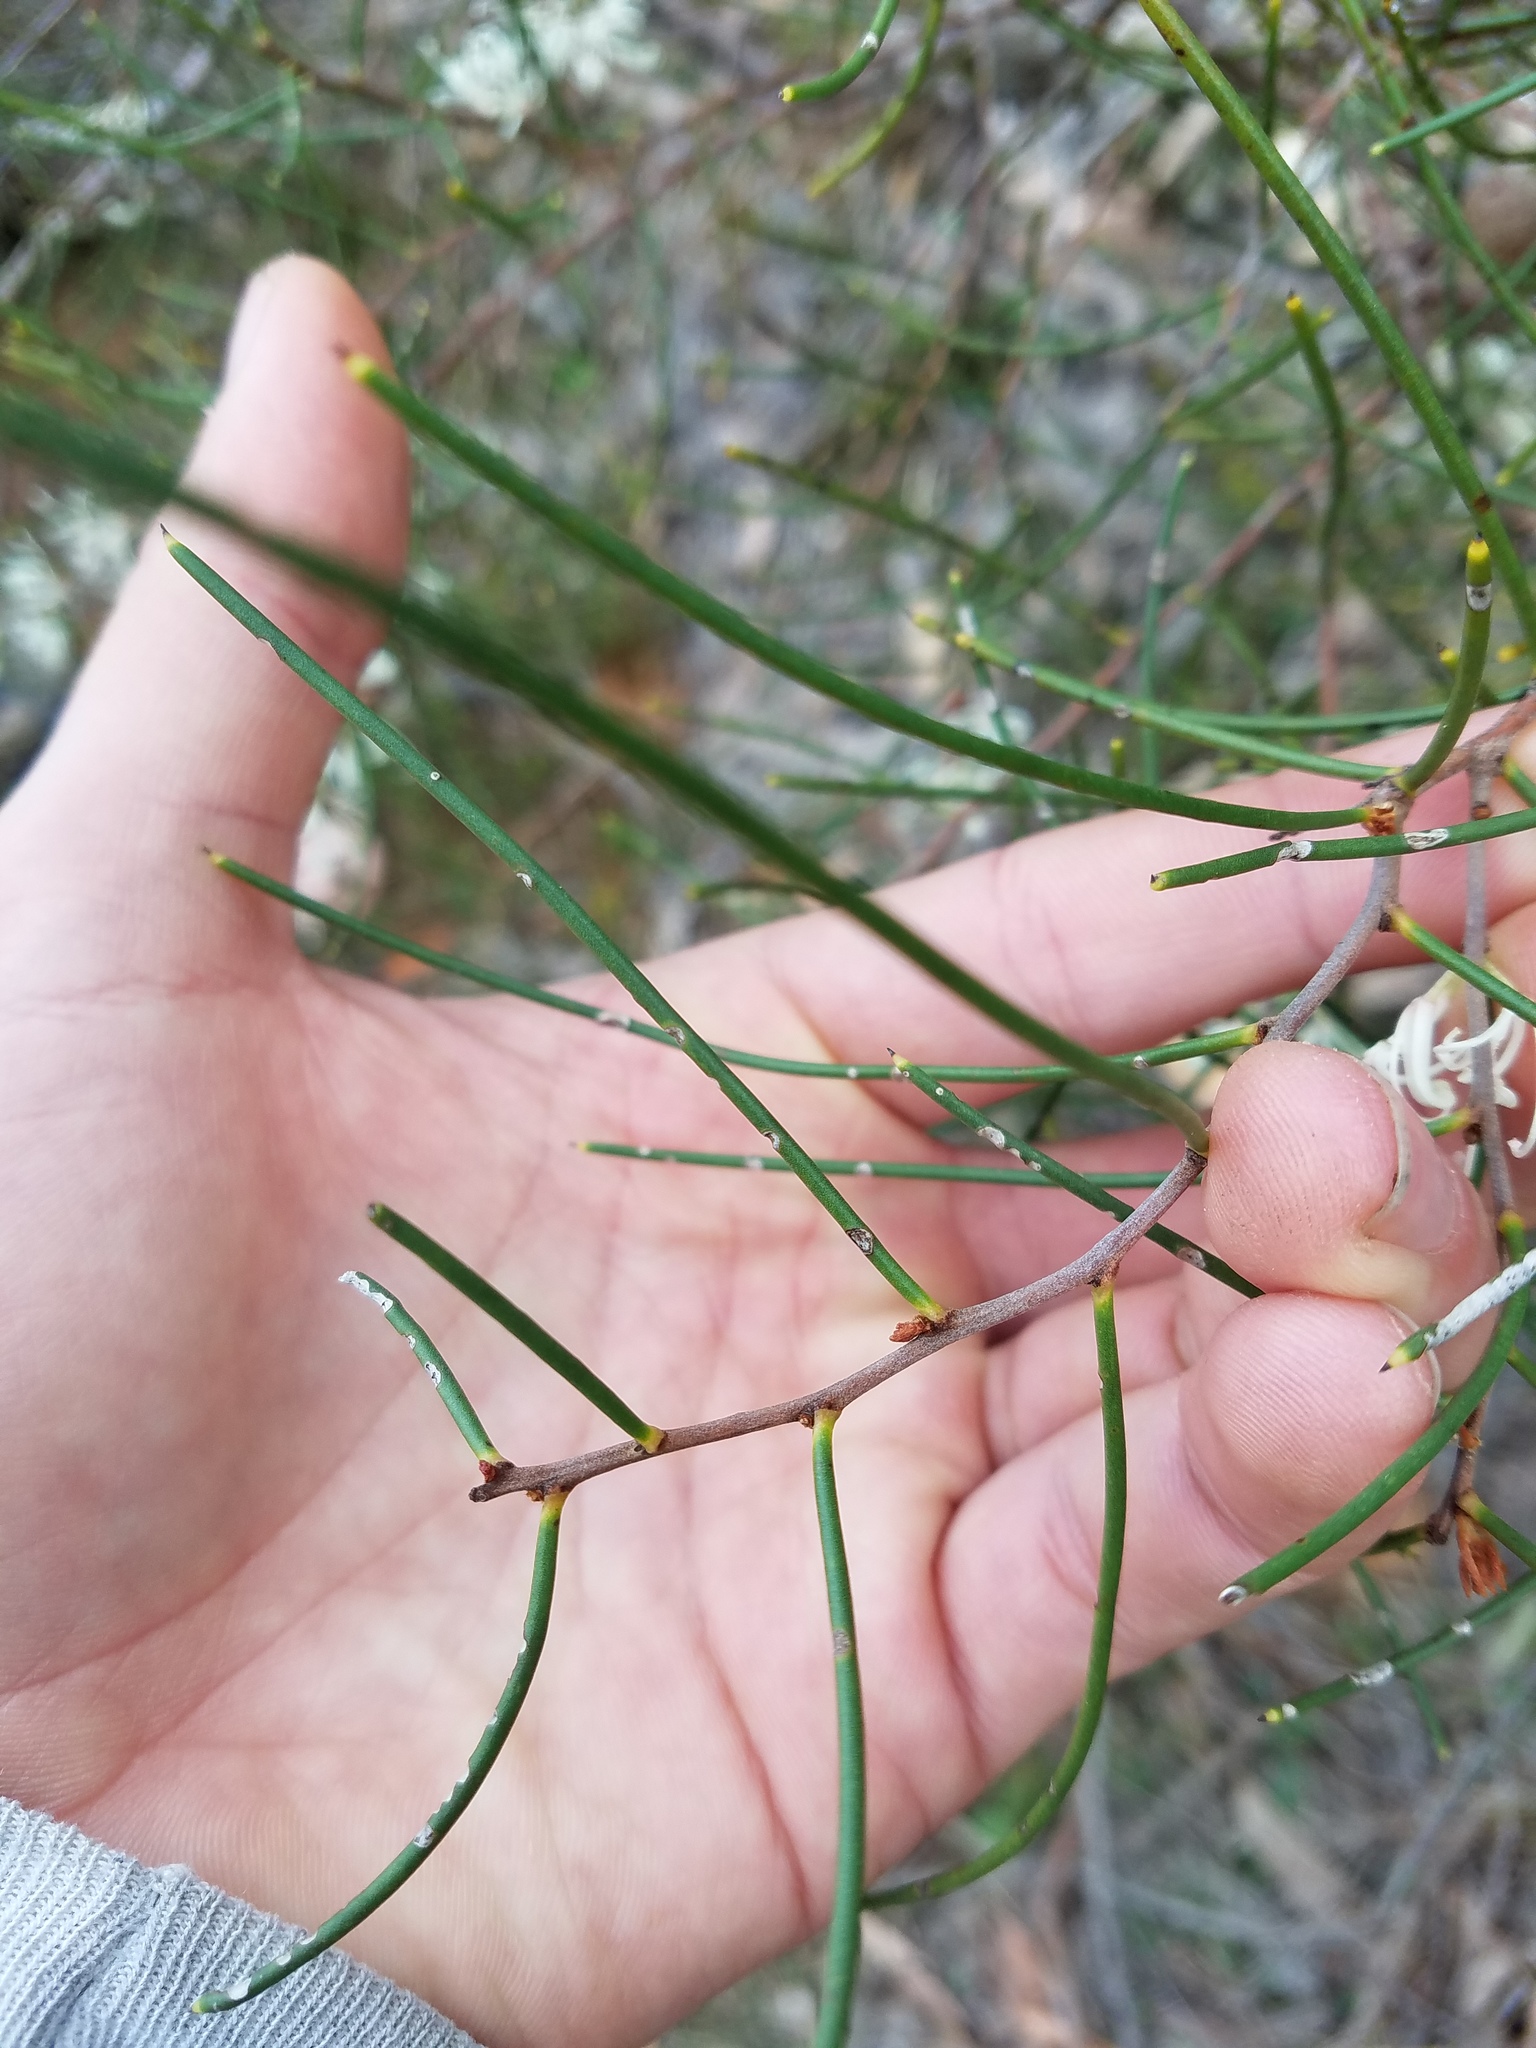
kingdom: Plantae
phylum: Tracheophyta
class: Magnoliopsida
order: Proteales
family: Proteaceae
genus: Hakea
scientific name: Hakea rostrata
